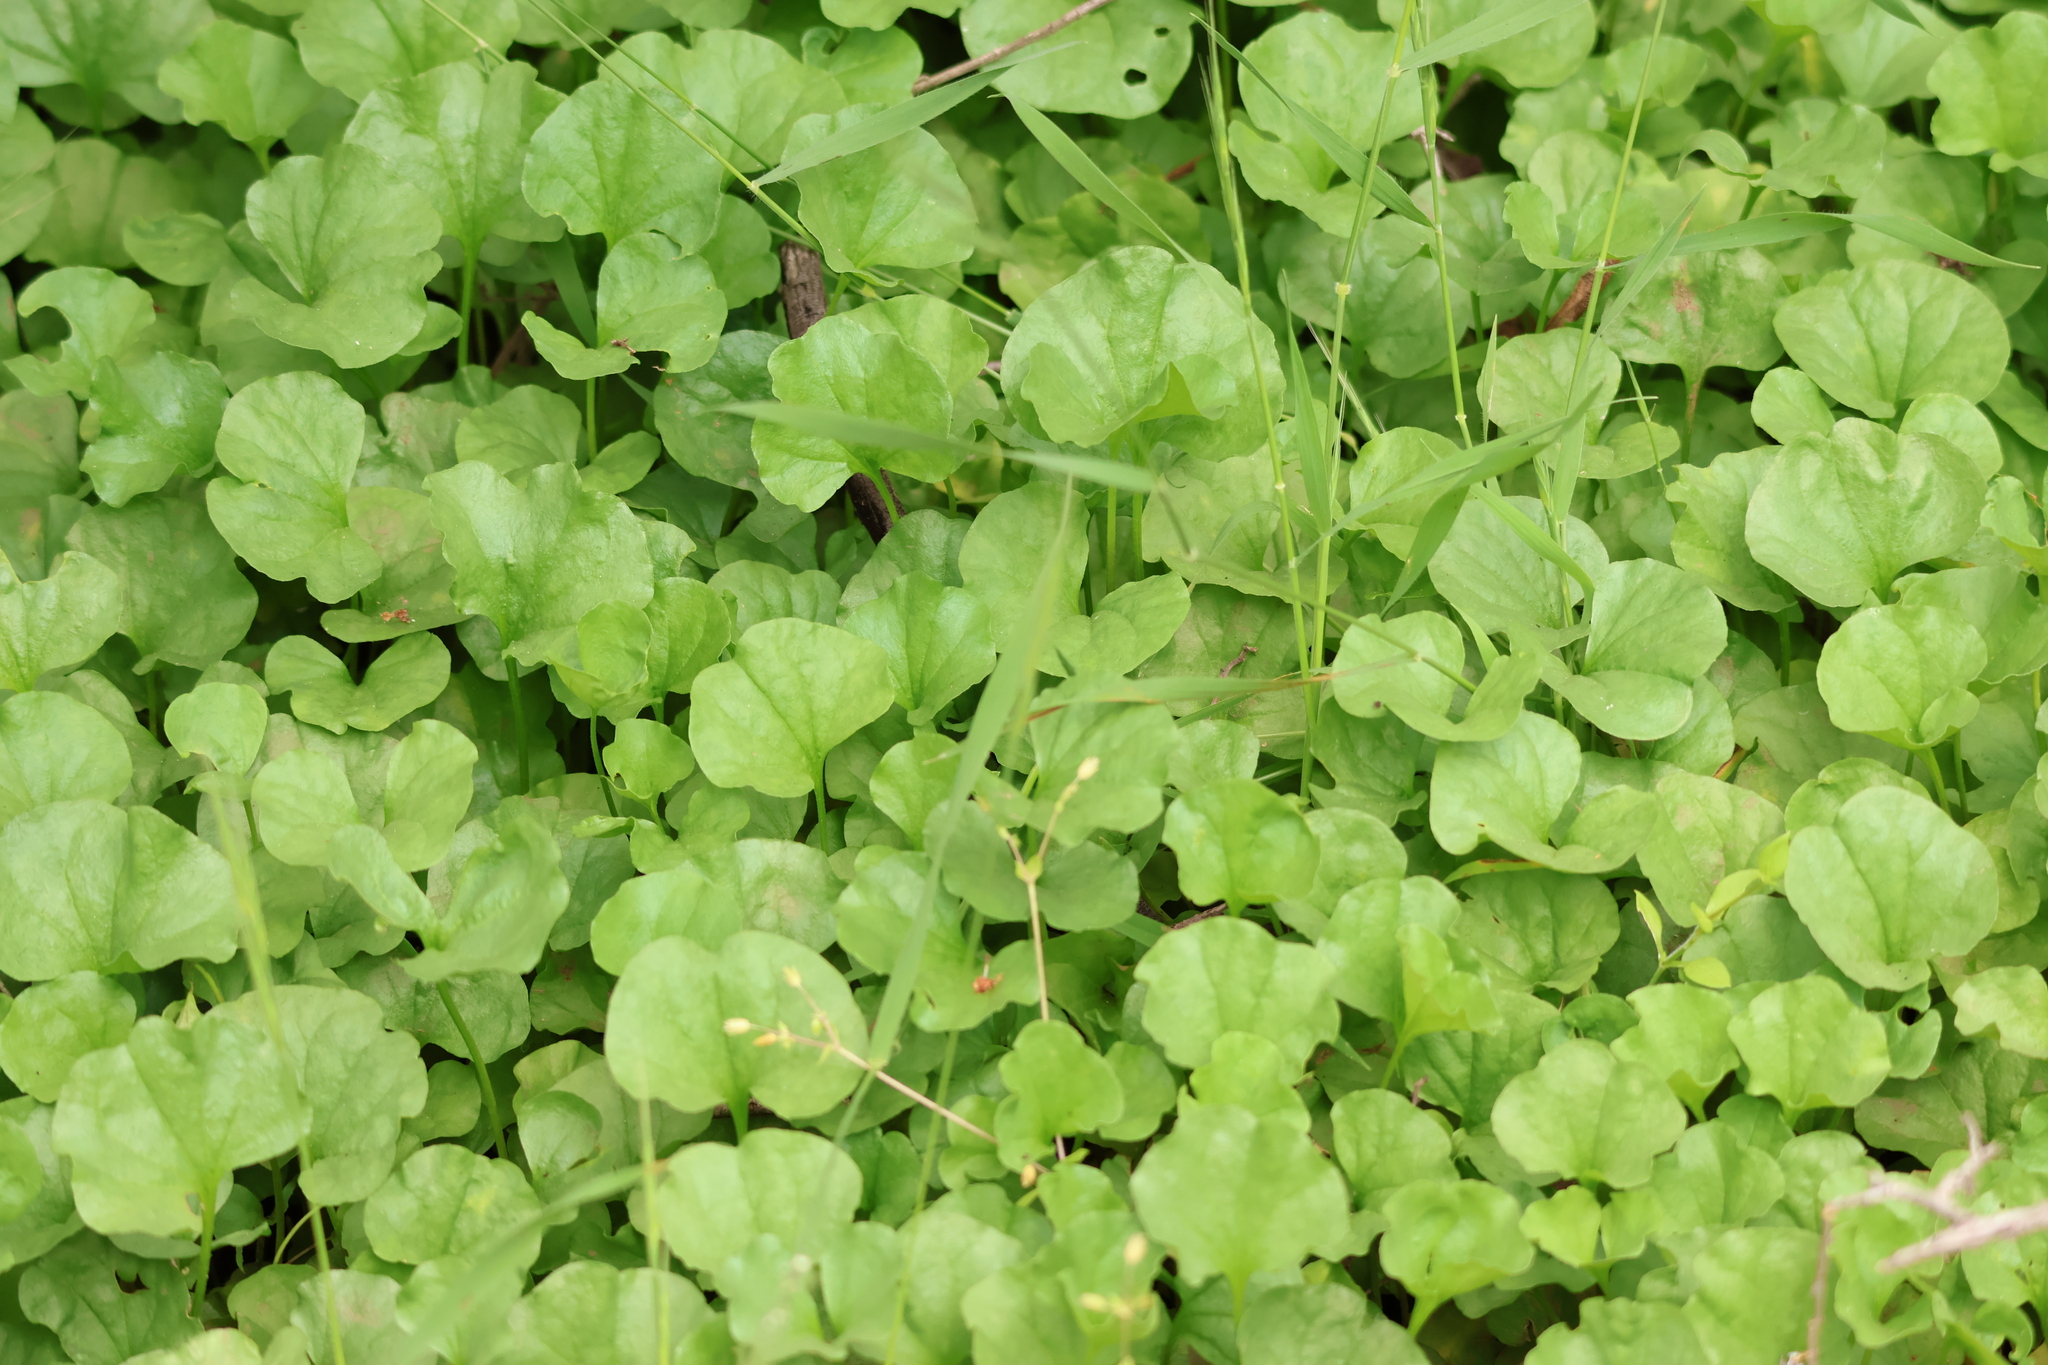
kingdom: Plantae
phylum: Tracheophyta
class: Magnoliopsida
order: Solanales
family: Convolvulaceae
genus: Dichondra
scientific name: Dichondra occidentalis
